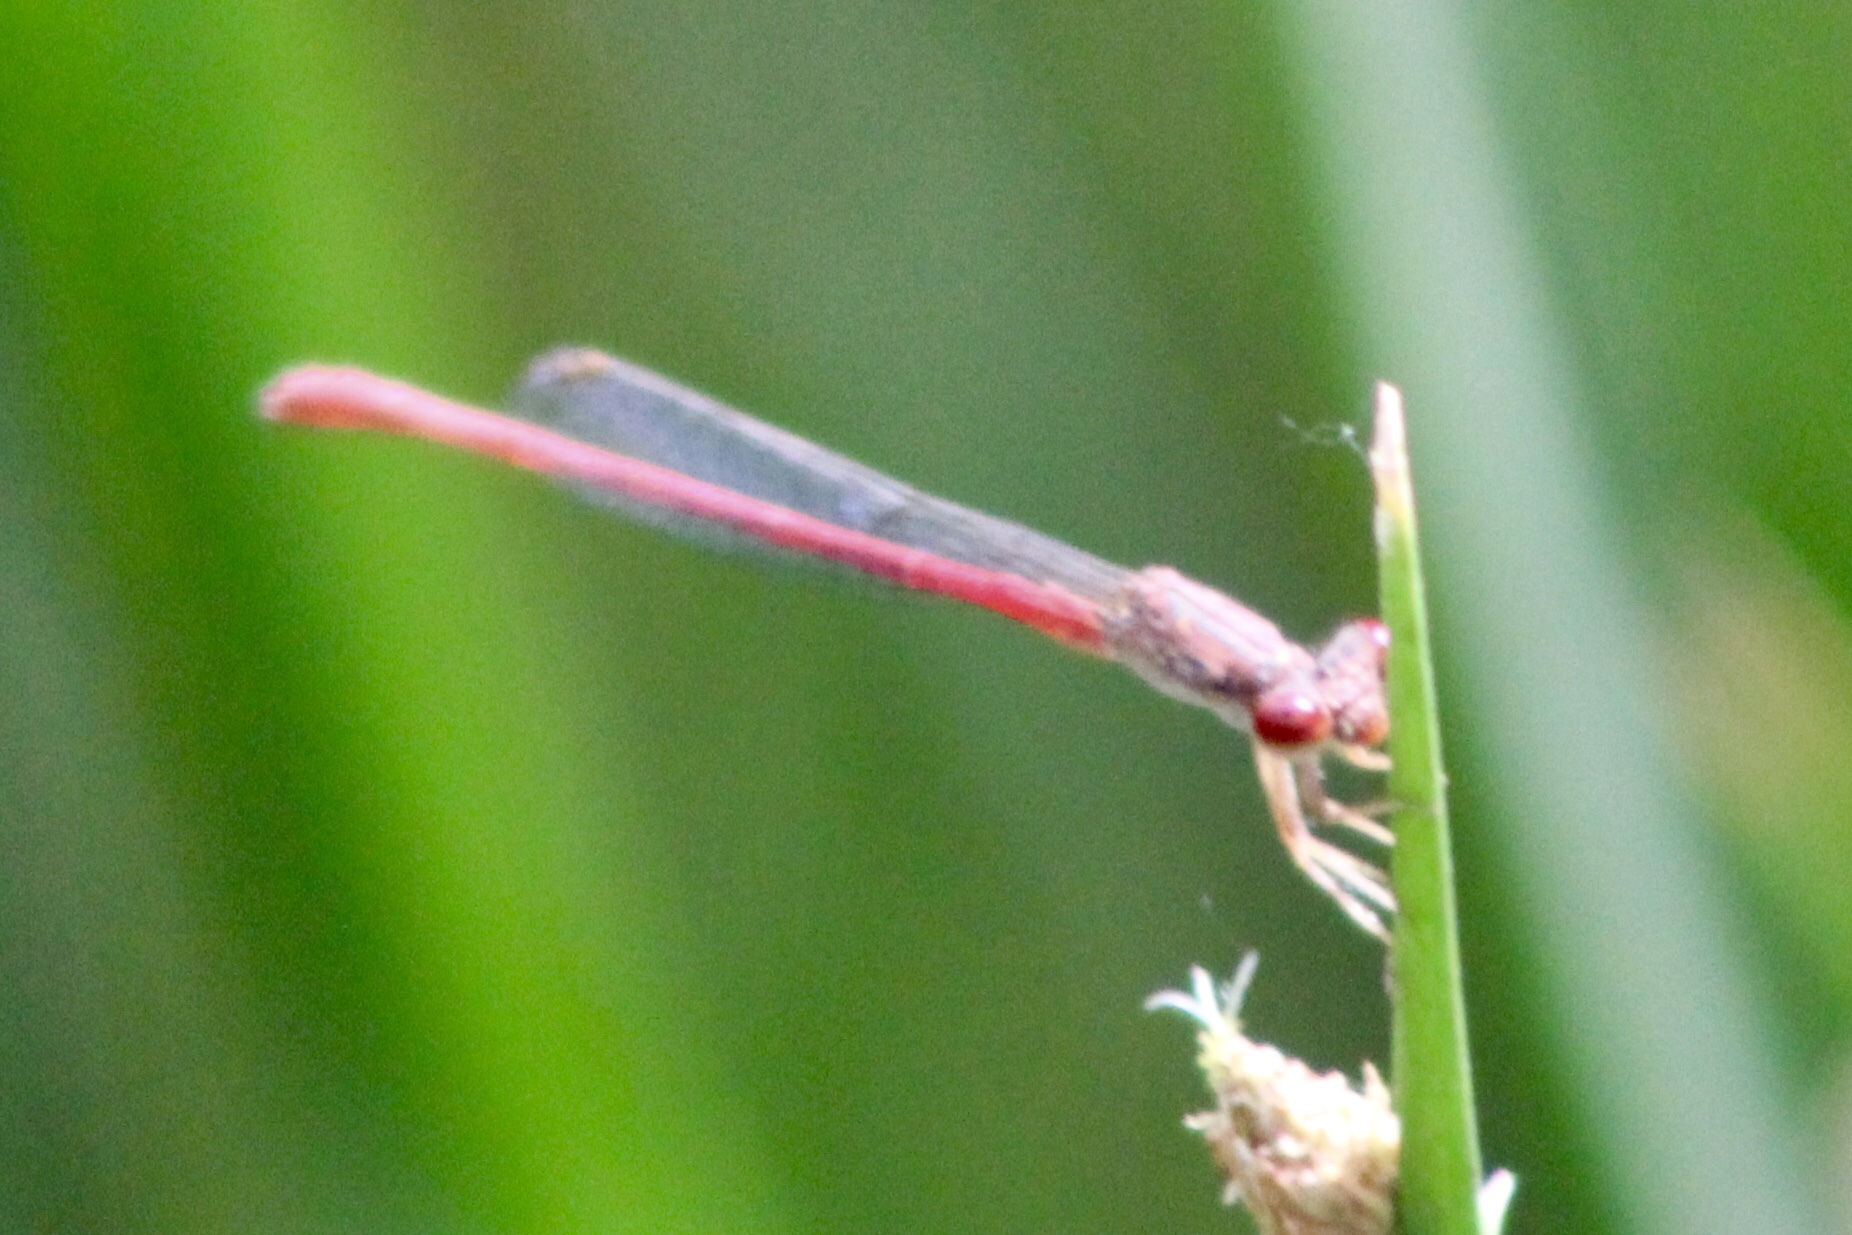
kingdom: Animalia
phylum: Arthropoda
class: Insecta
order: Odonata
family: Coenagrionidae
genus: Telebasis
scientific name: Telebasis salva
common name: Desert firetail
